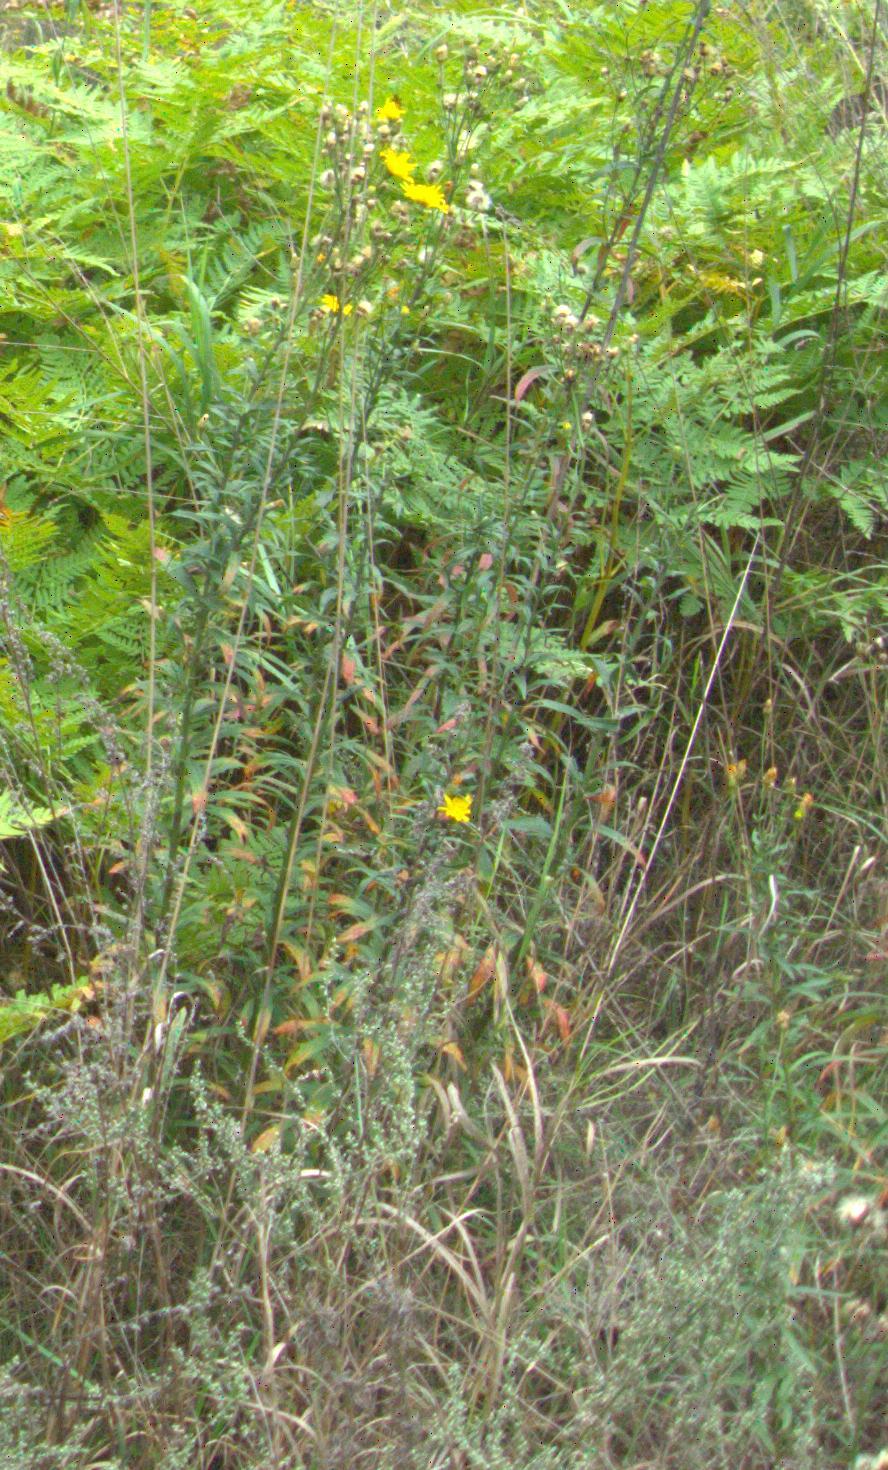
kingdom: Plantae
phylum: Tracheophyta
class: Magnoliopsida
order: Asterales
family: Asteraceae
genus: Hieracium
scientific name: Hieracium umbellatum
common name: Northern hawkweed
